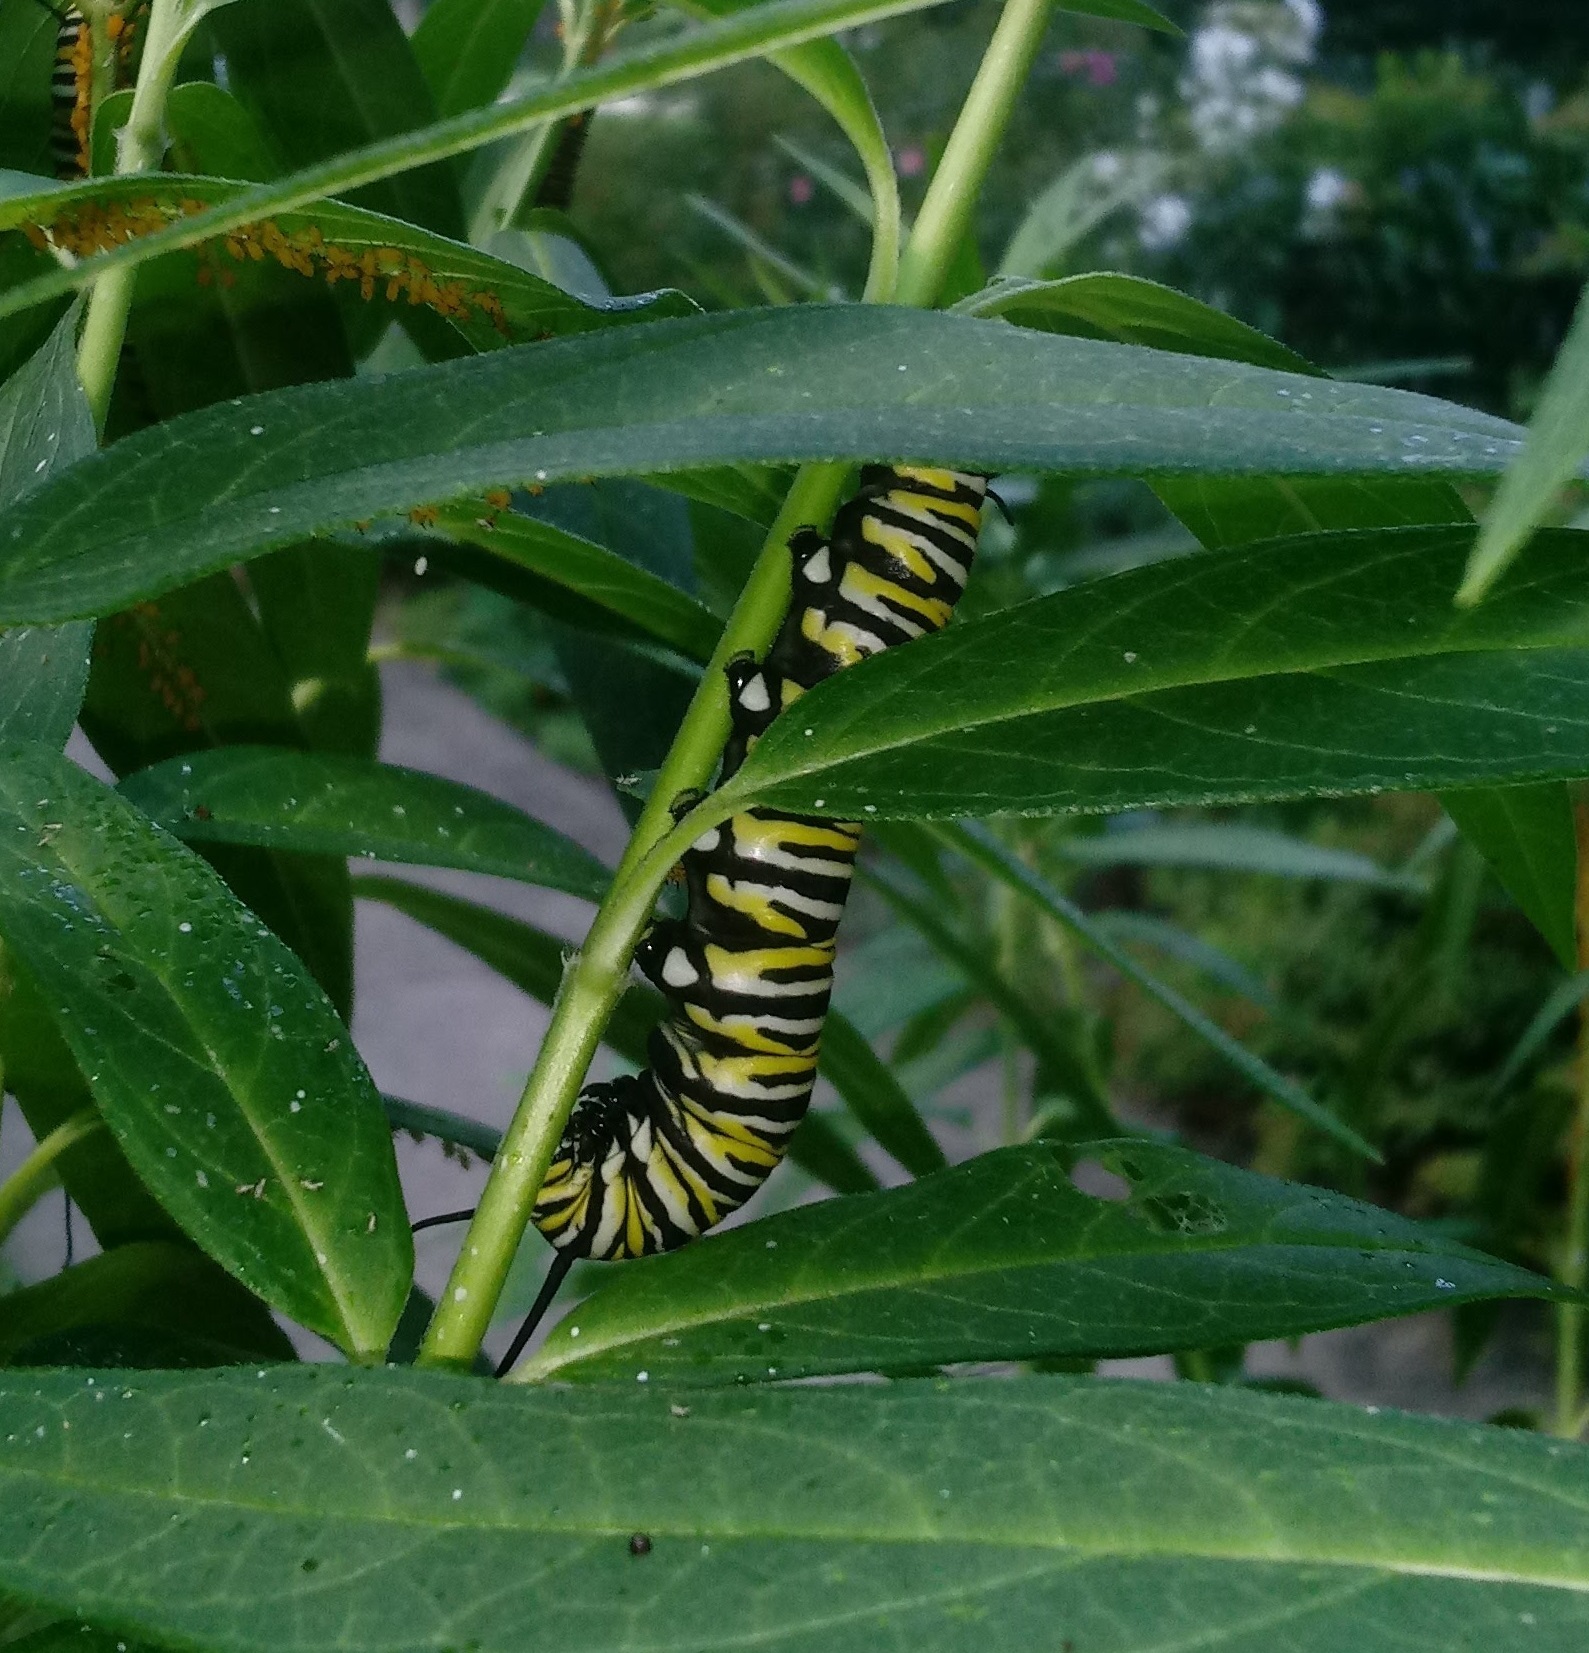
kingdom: Animalia
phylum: Arthropoda
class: Insecta
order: Lepidoptera
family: Nymphalidae
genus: Danaus
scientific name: Danaus plexippus
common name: Monarch
